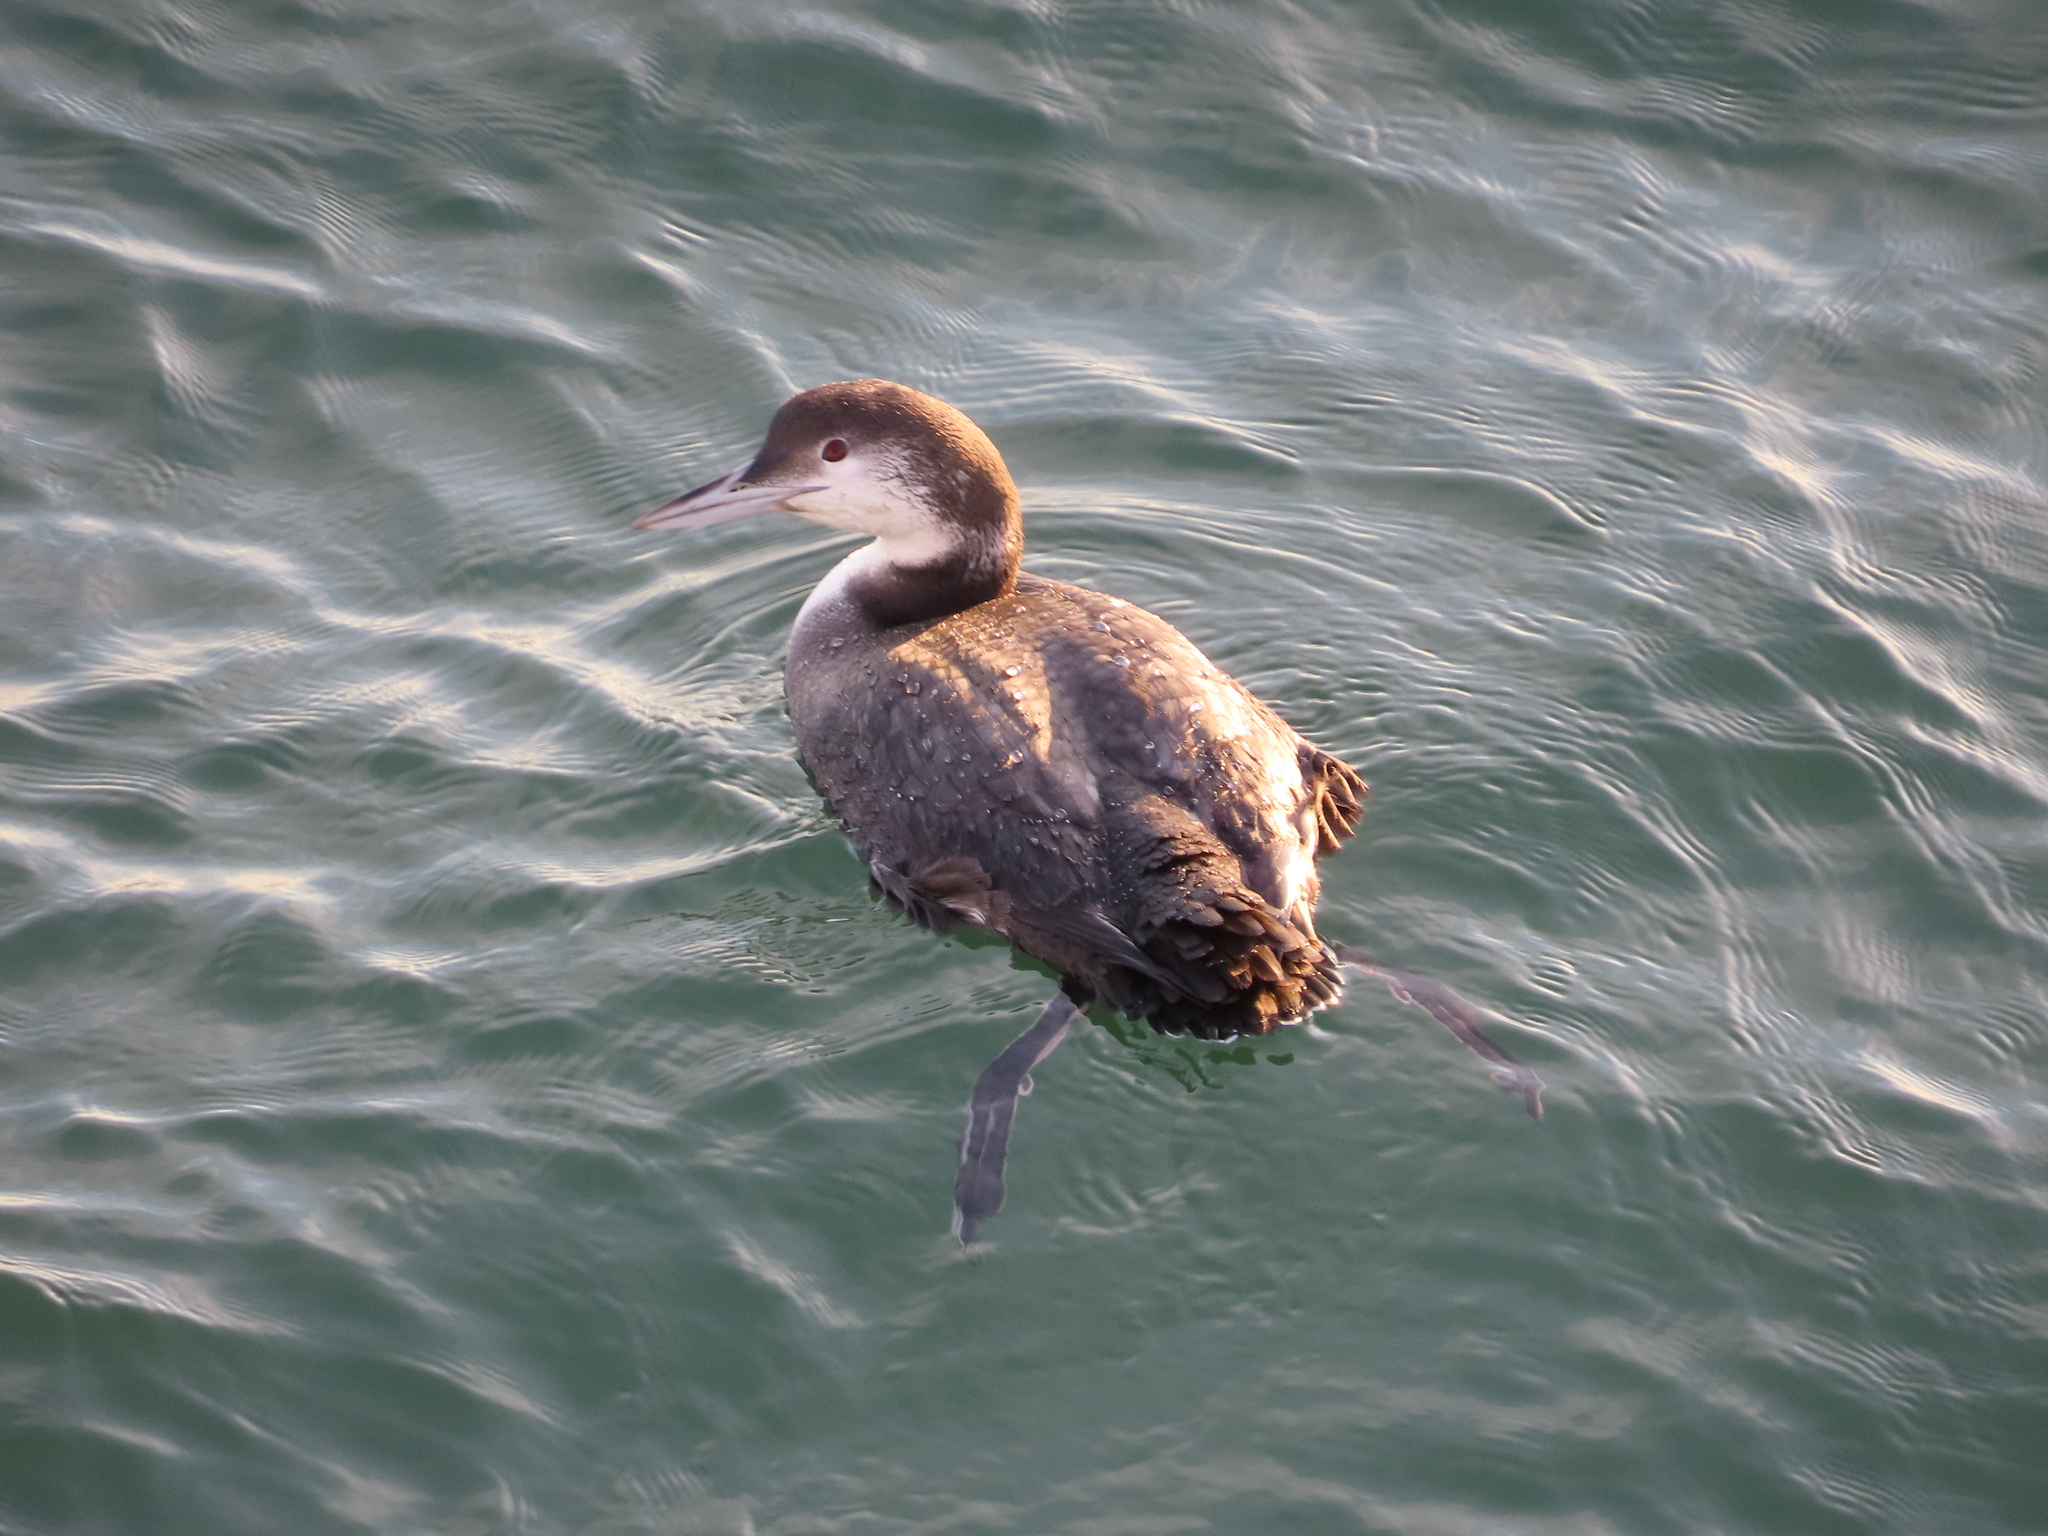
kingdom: Animalia
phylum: Chordata
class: Aves
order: Gaviiformes
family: Gaviidae
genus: Gavia
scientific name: Gavia immer
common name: Common loon
